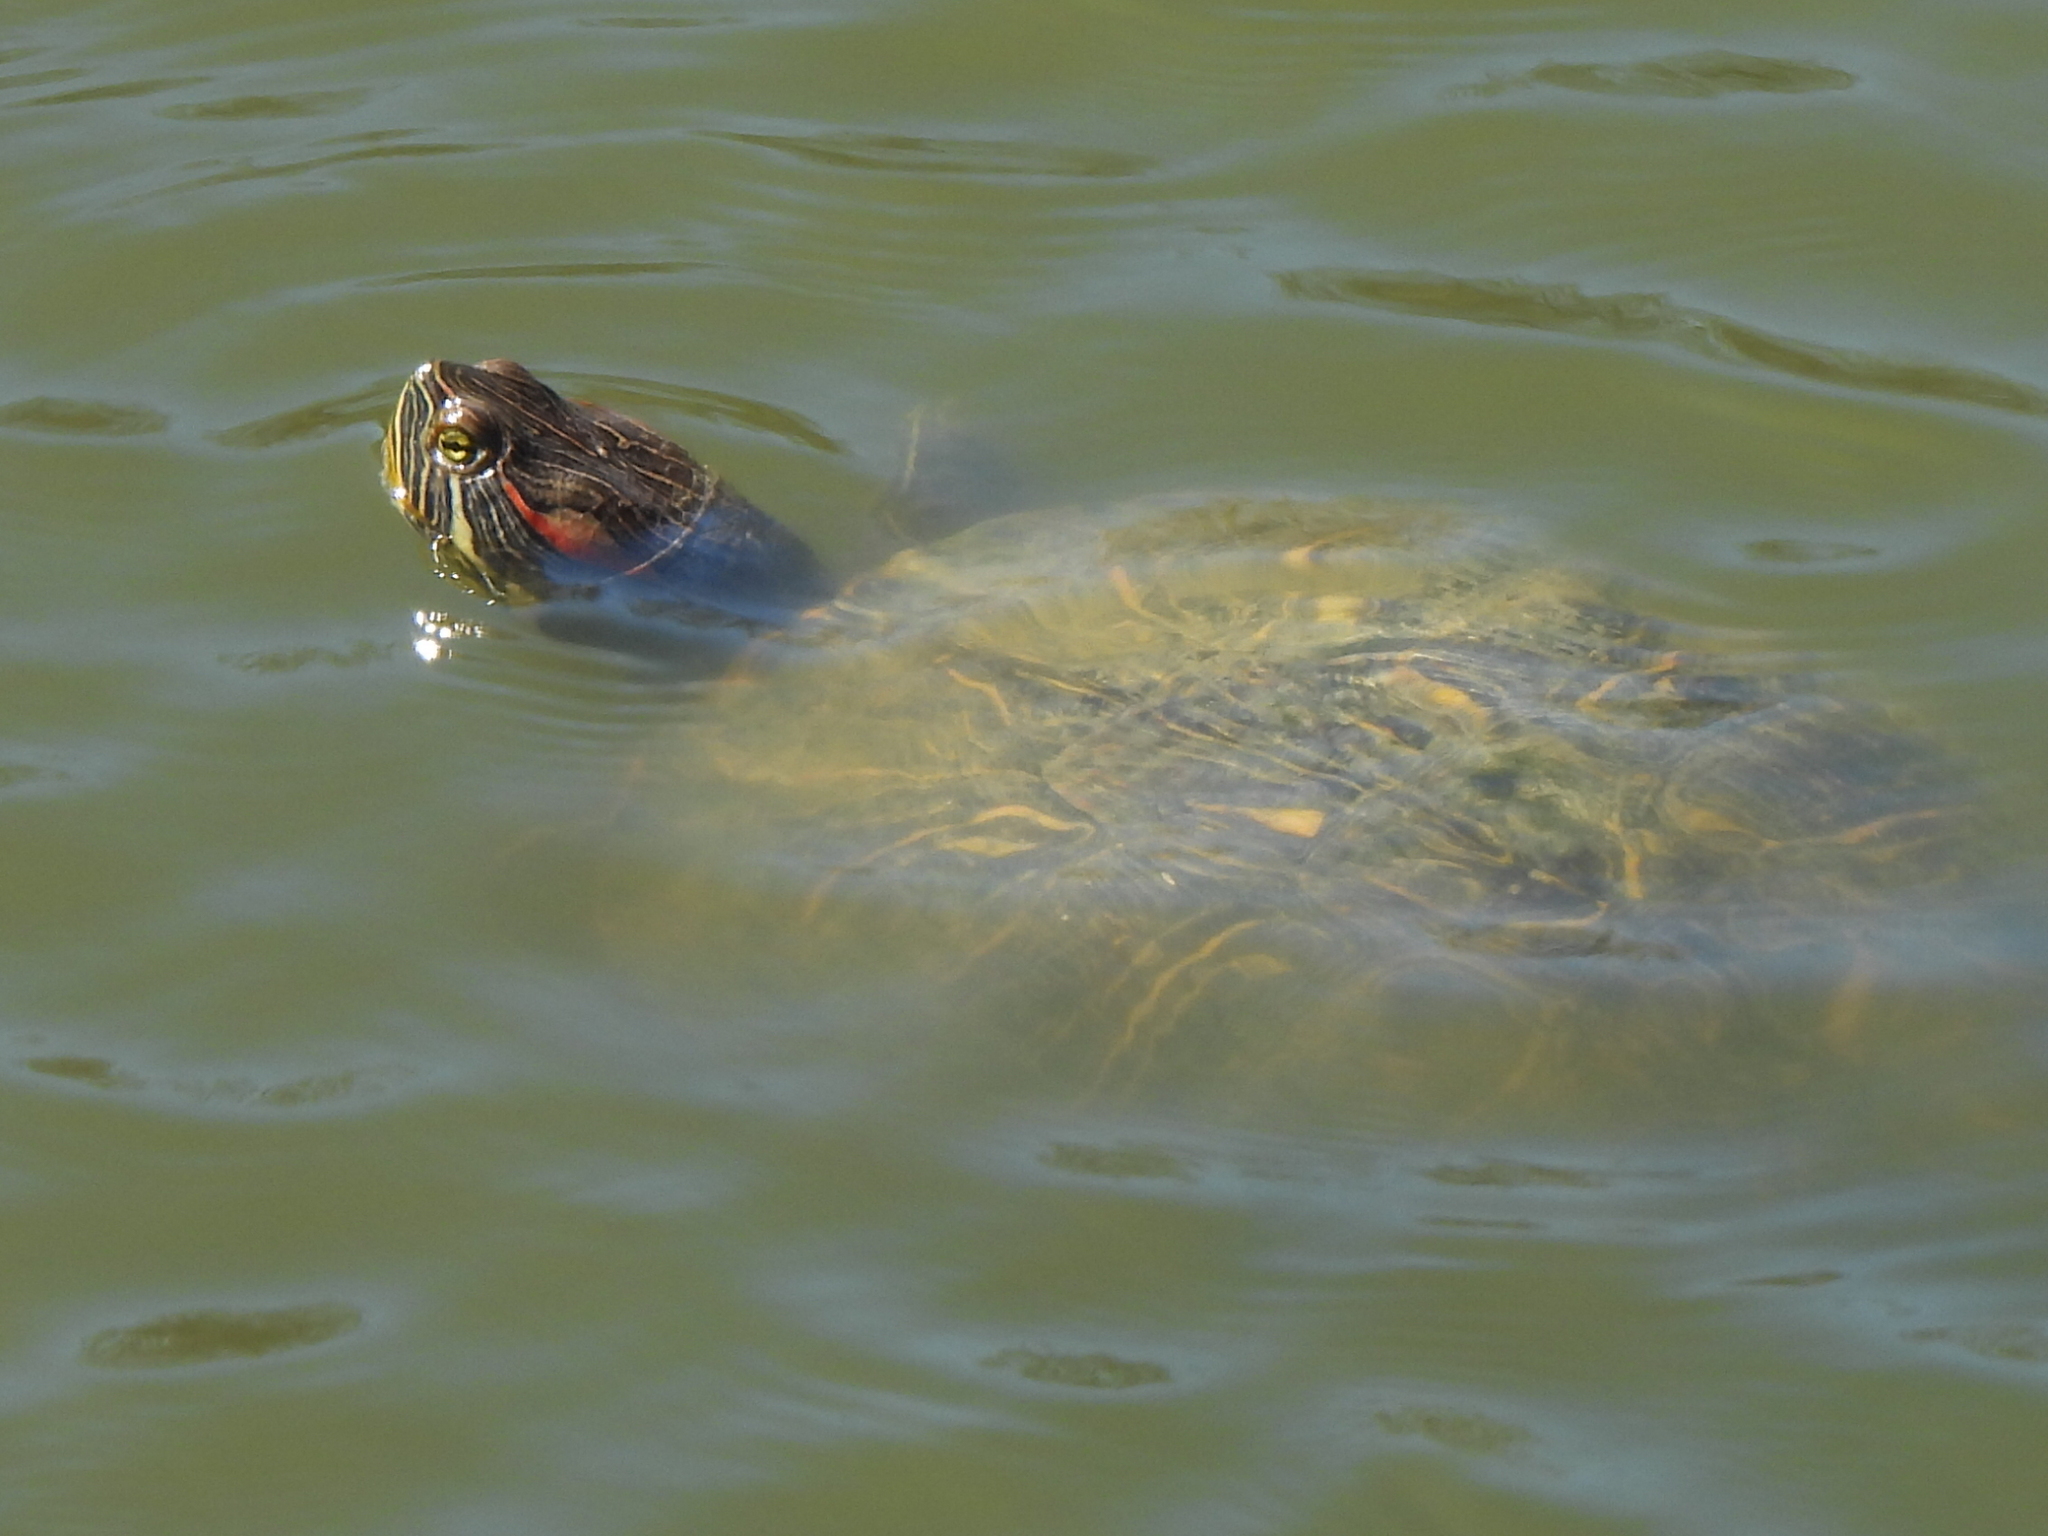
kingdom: Animalia
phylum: Chordata
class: Testudines
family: Emydidae
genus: Trachemys
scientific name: Trachemys scripta
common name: Slider
